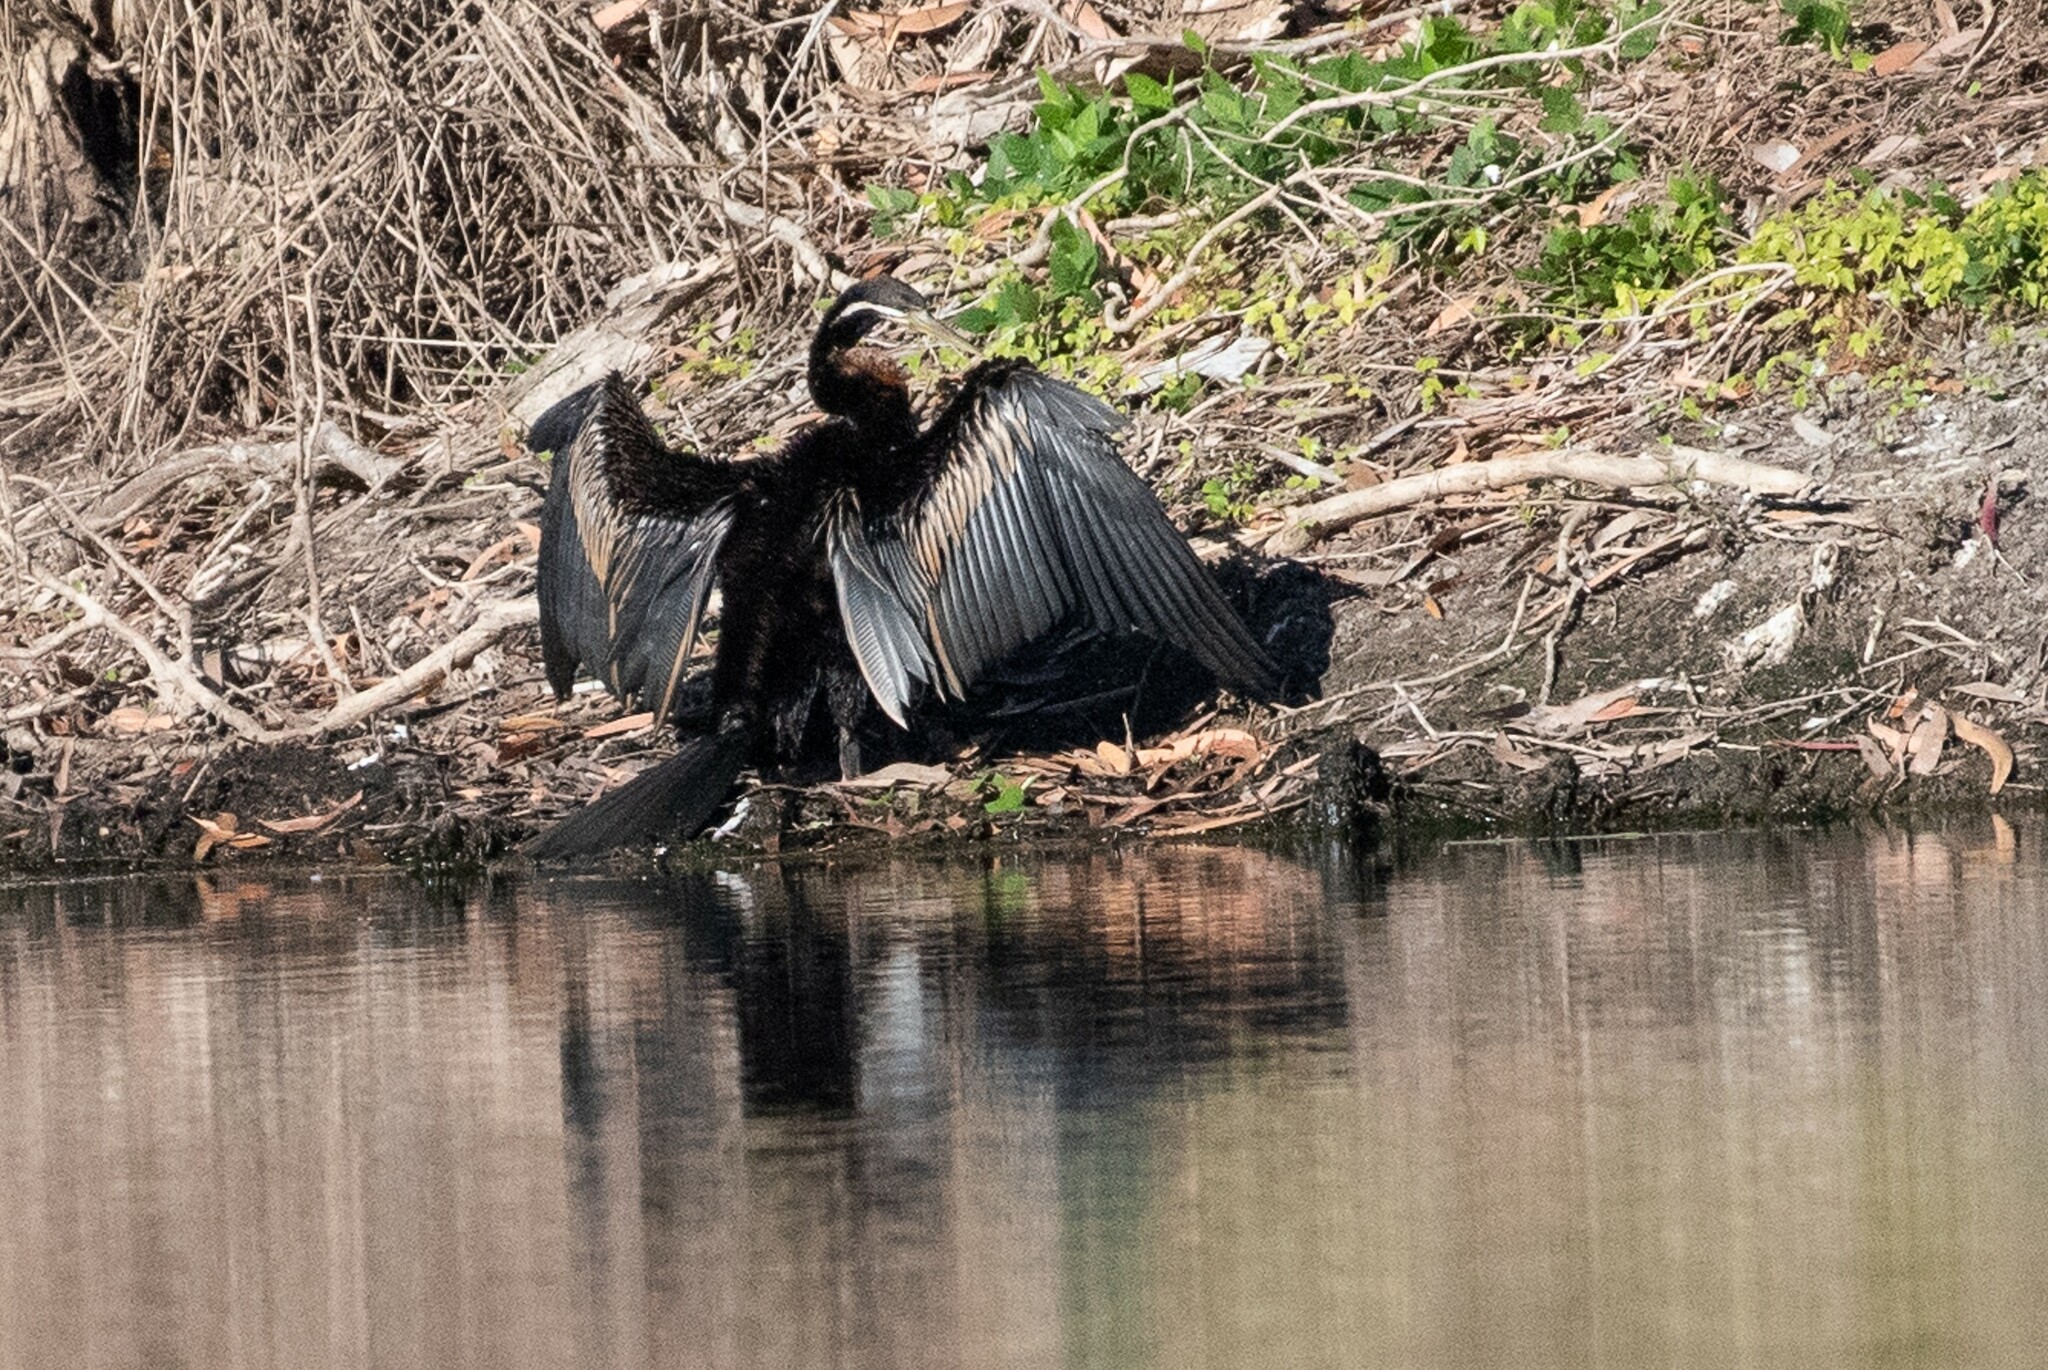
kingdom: Animalia
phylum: Chordata
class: Aves
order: Suliformes
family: Anhingidae
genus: Anhinga
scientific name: Anhinga novaehollandiae
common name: Australasian darter
